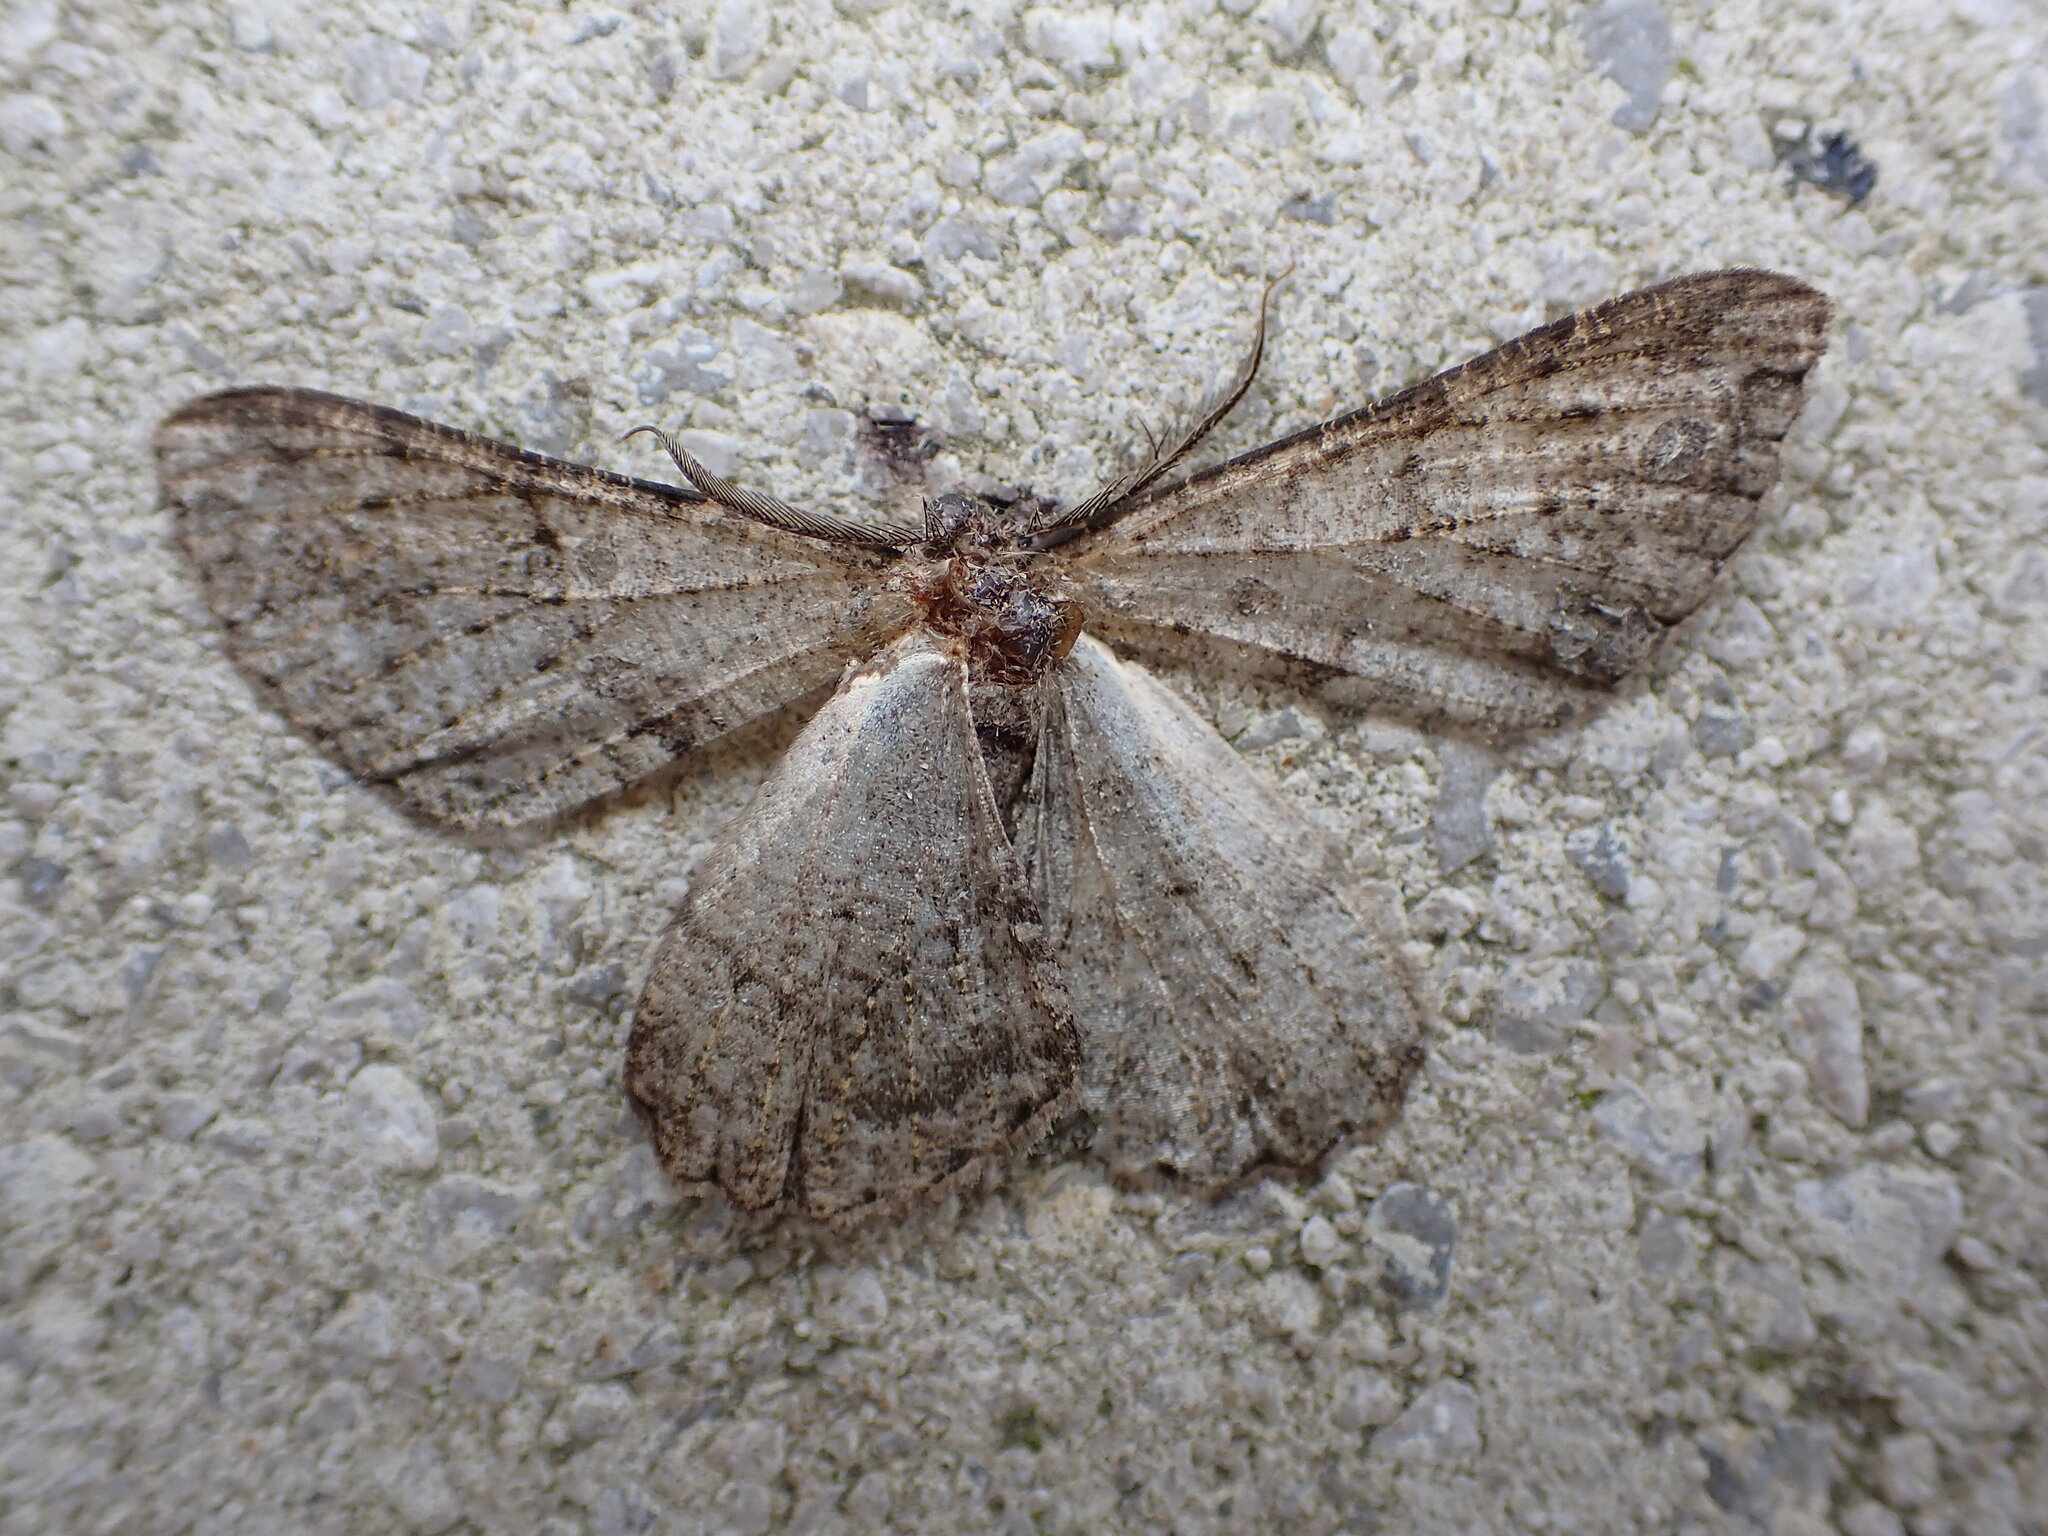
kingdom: Animalia
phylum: Arthropoda
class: Insecta
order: Lepidoptera
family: Geometridae
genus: Peribatodes
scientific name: Peribatodes rhomboidaria
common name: Willow beauty
